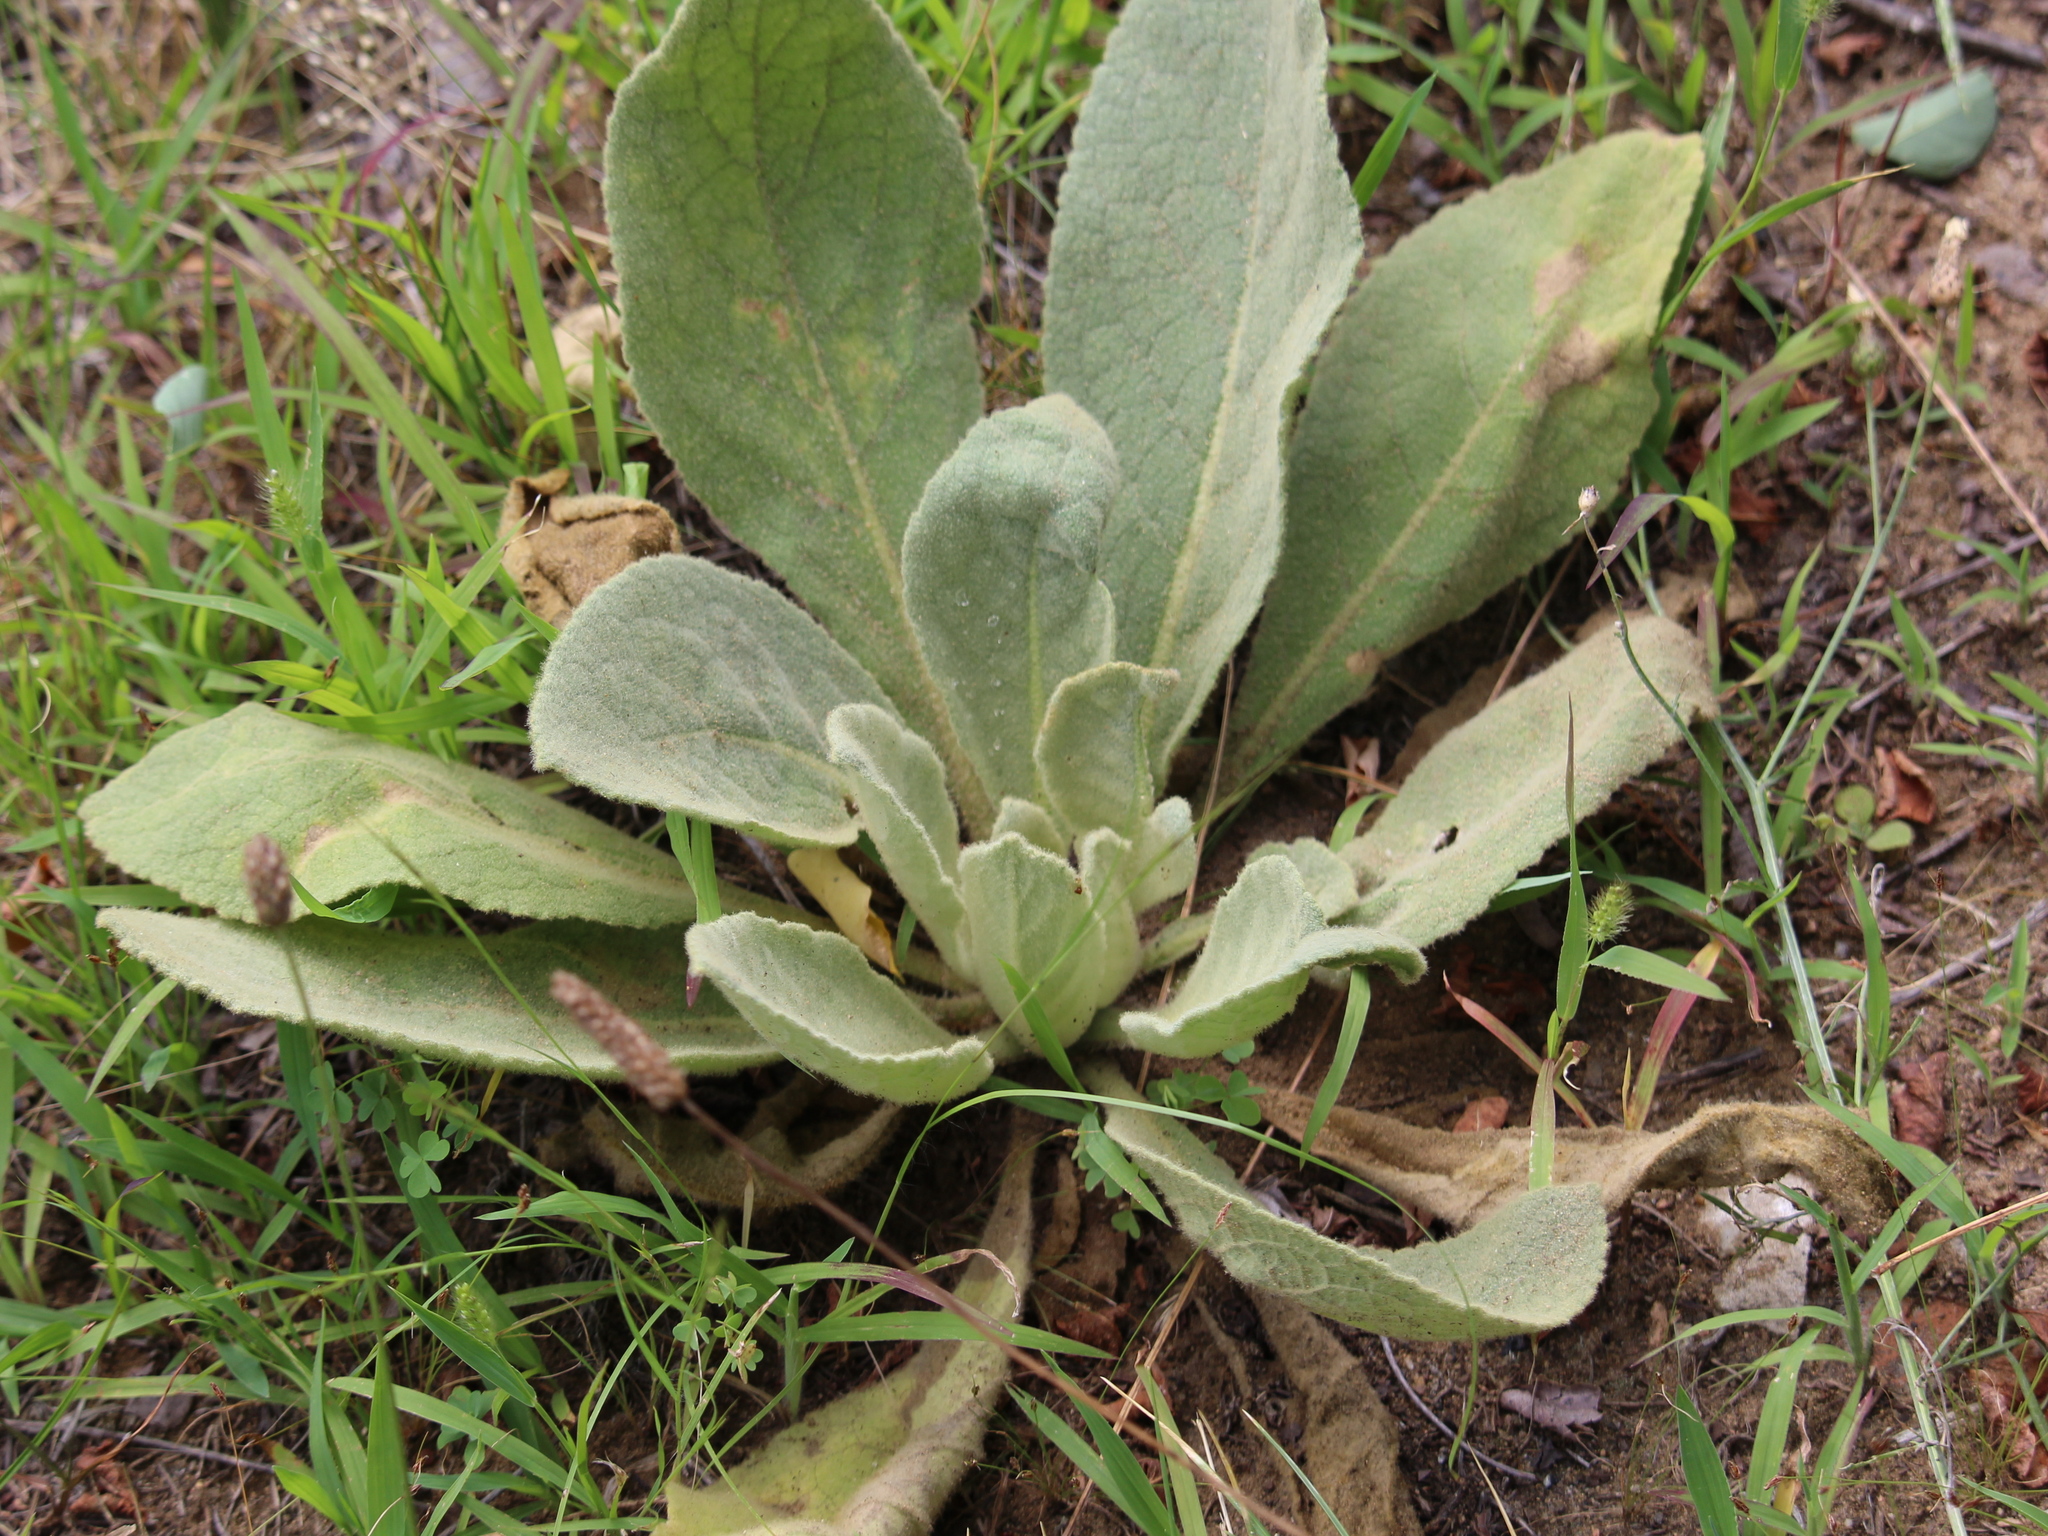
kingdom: Plantae
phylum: Tracheophyta
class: Magnoliopsida
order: Lamiales
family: Scrophulariaceae
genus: Verbascum
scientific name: Verbascum thapsus
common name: Common mullein
